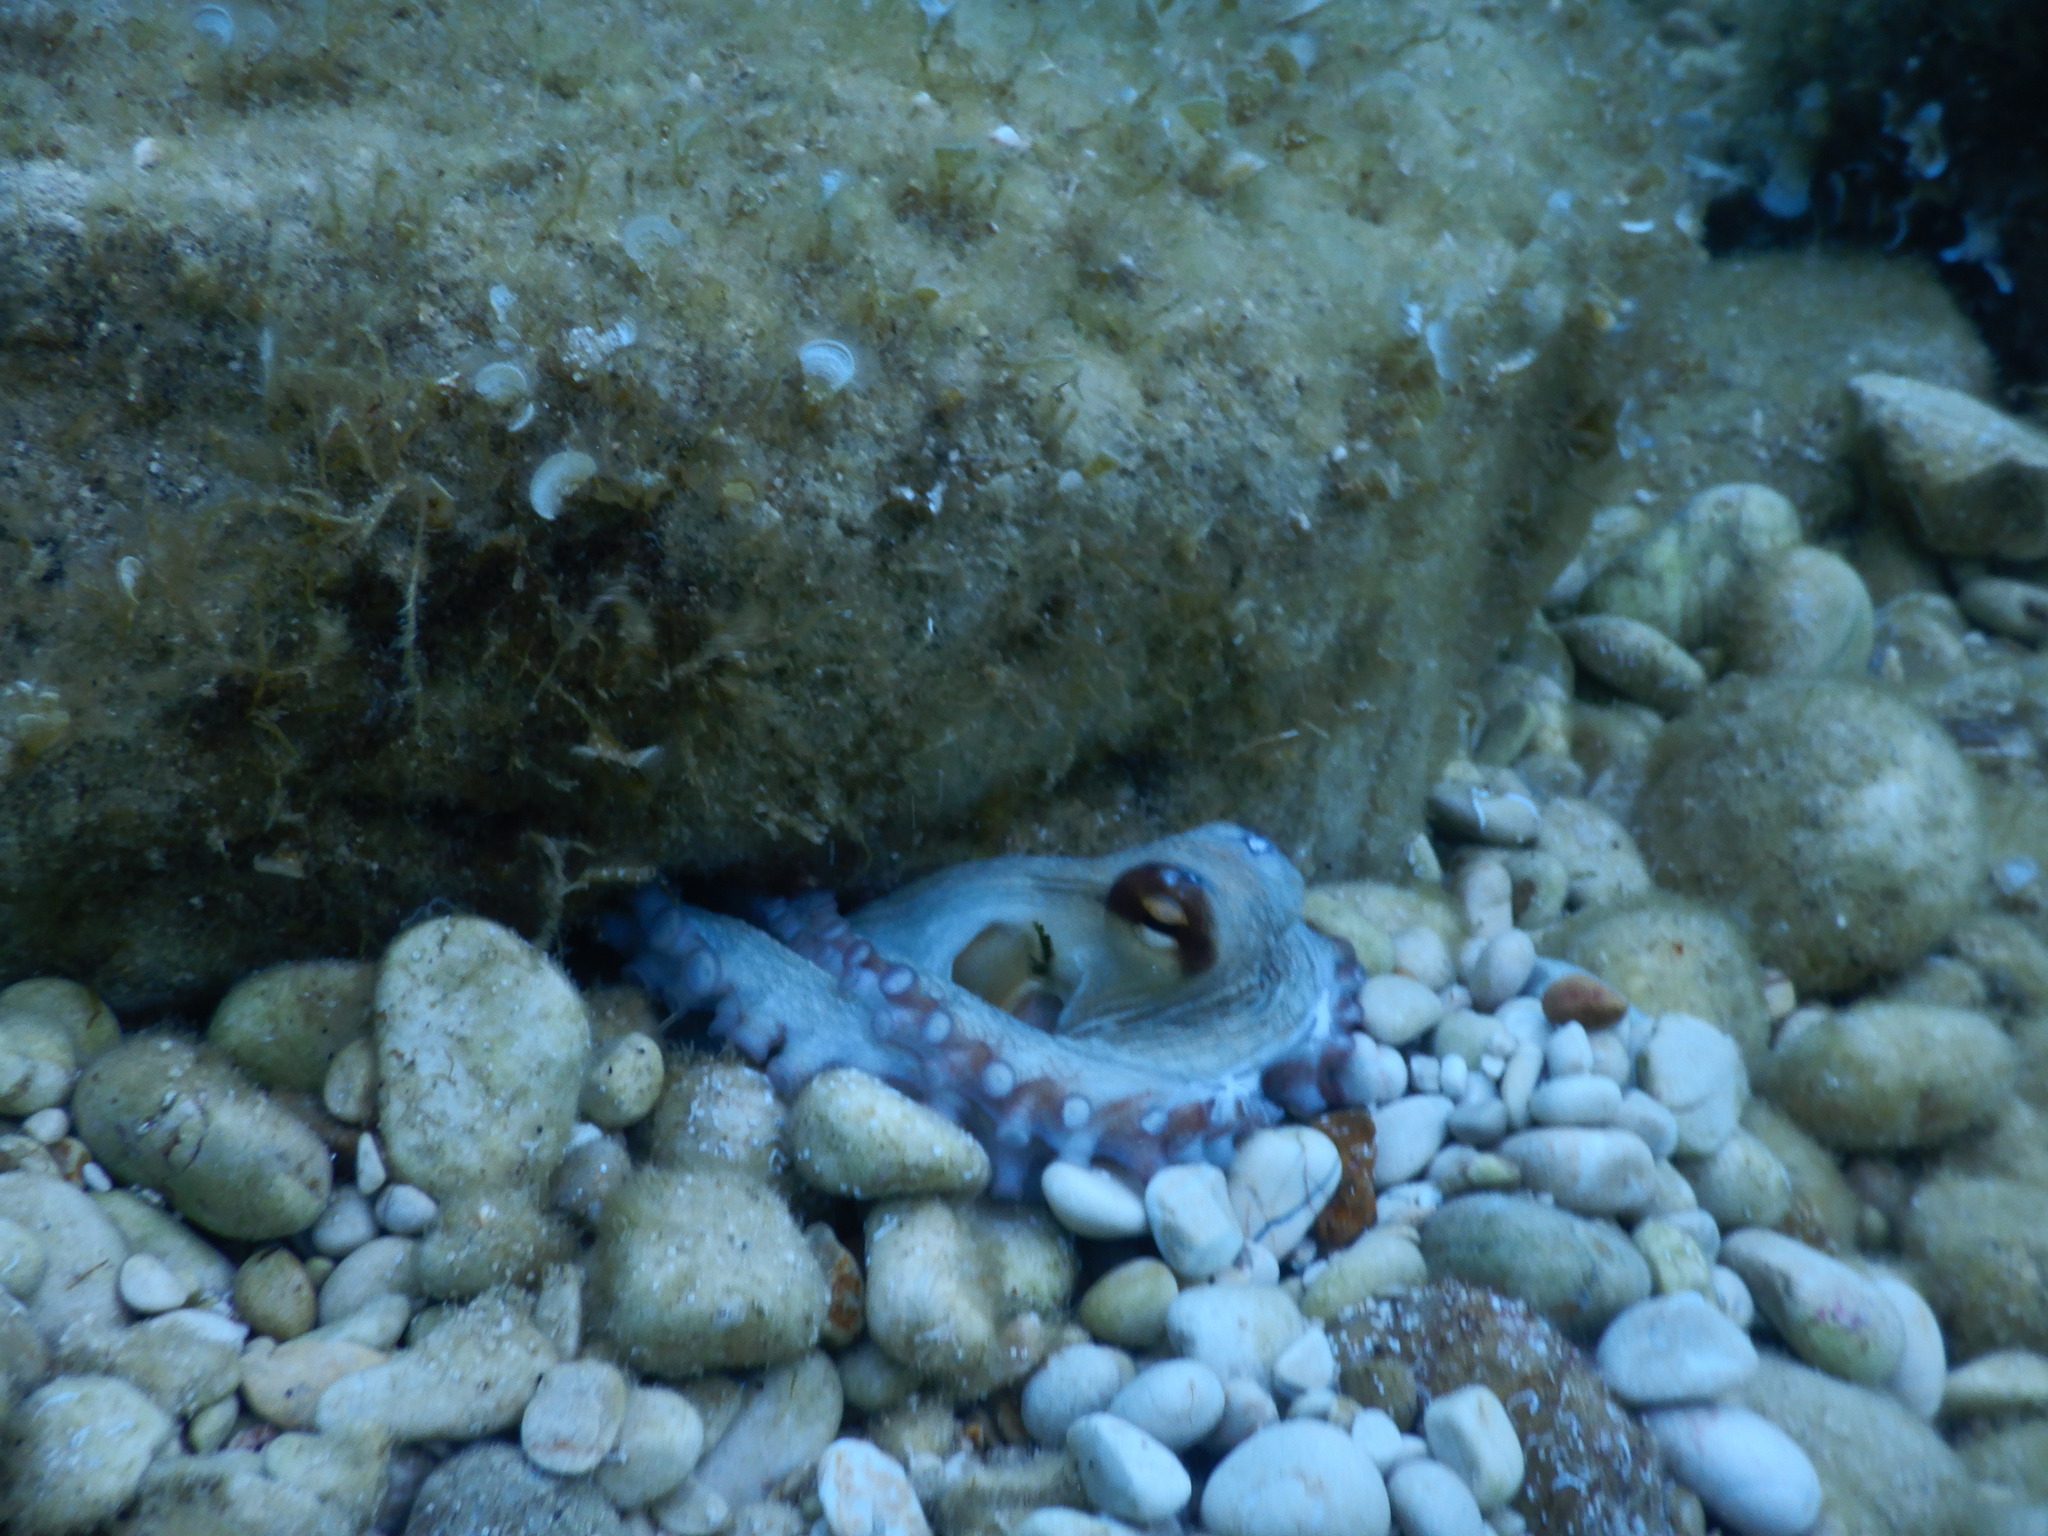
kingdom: Animalia
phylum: Mollusca
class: Cephalopoda
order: Octopoda
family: Octopodidae
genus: Octopus
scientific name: Octopus vulgaris
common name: Common octopus
